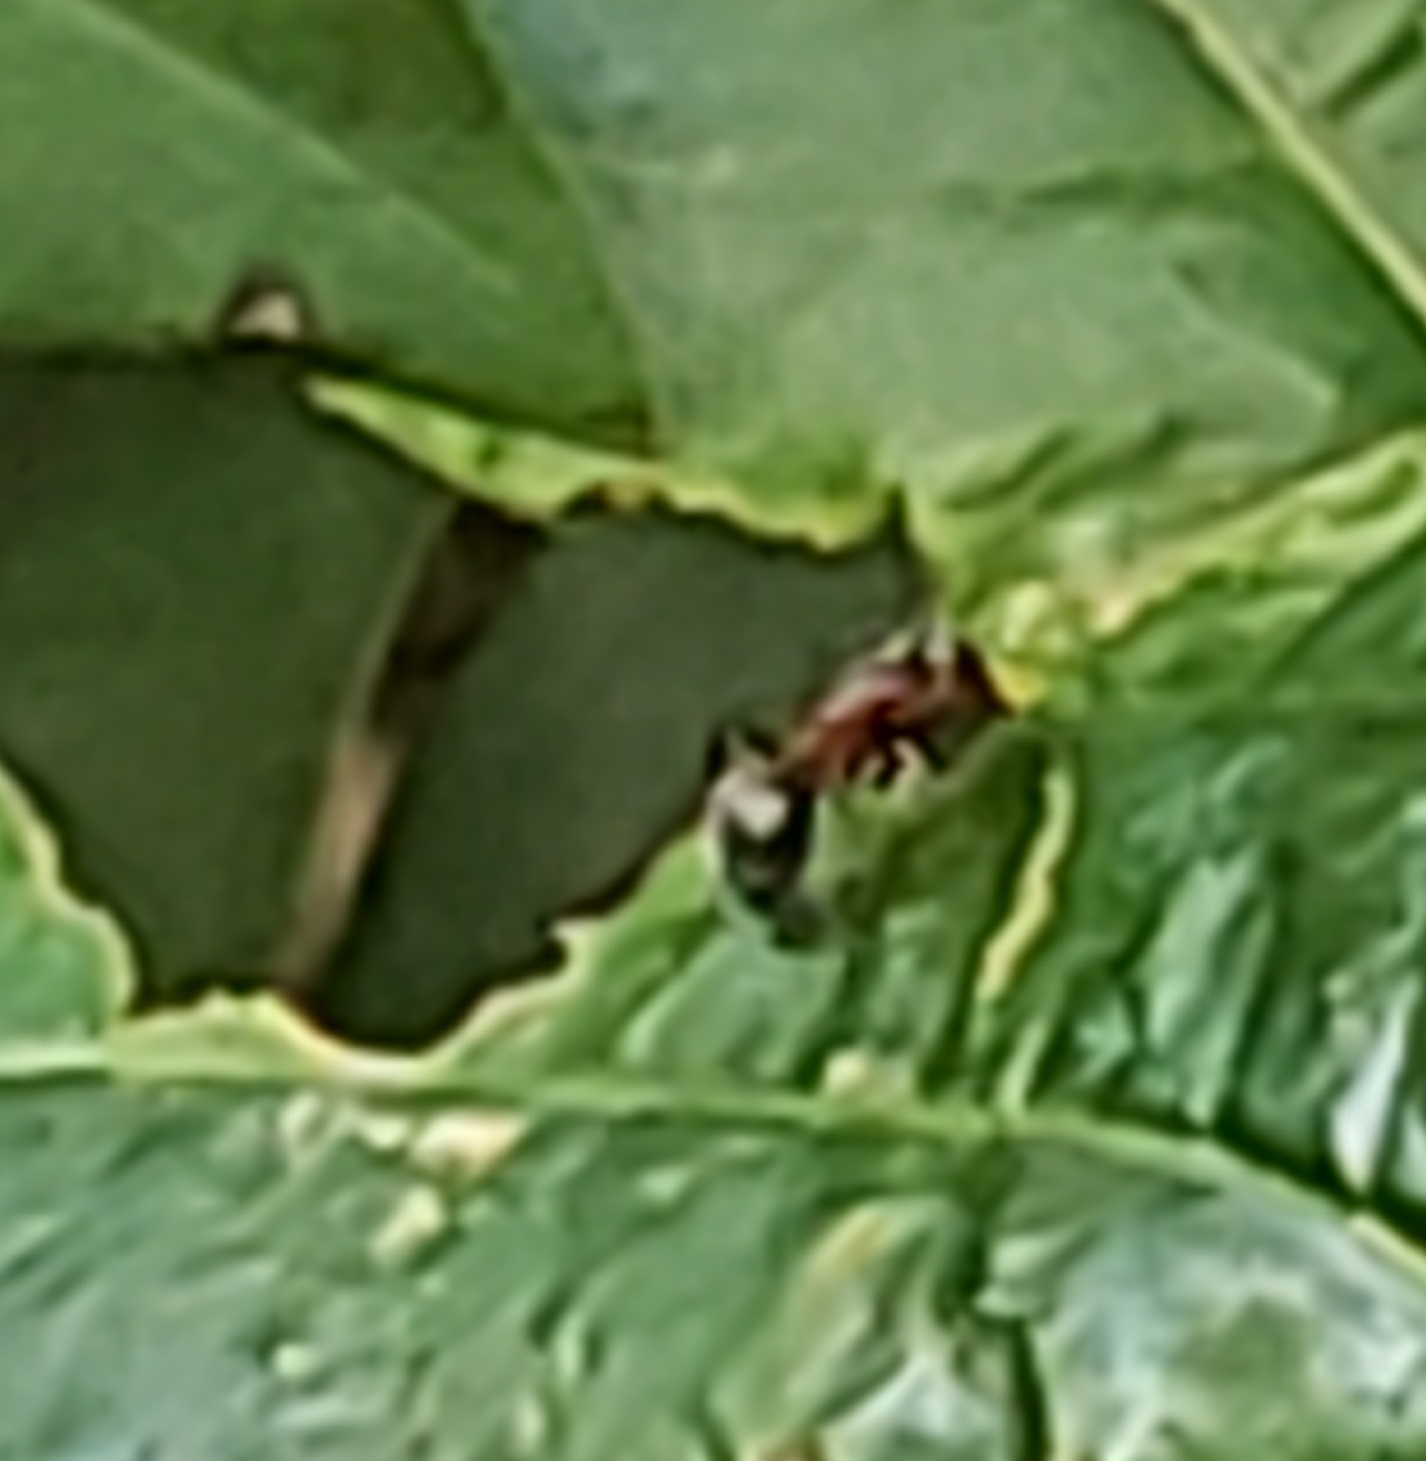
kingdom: Animalia
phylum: Arthropoda
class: Insecta
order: Hymenoptera
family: Formicidae
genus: Camponotus
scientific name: Camponotus planatus
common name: Compact carpenter ant
